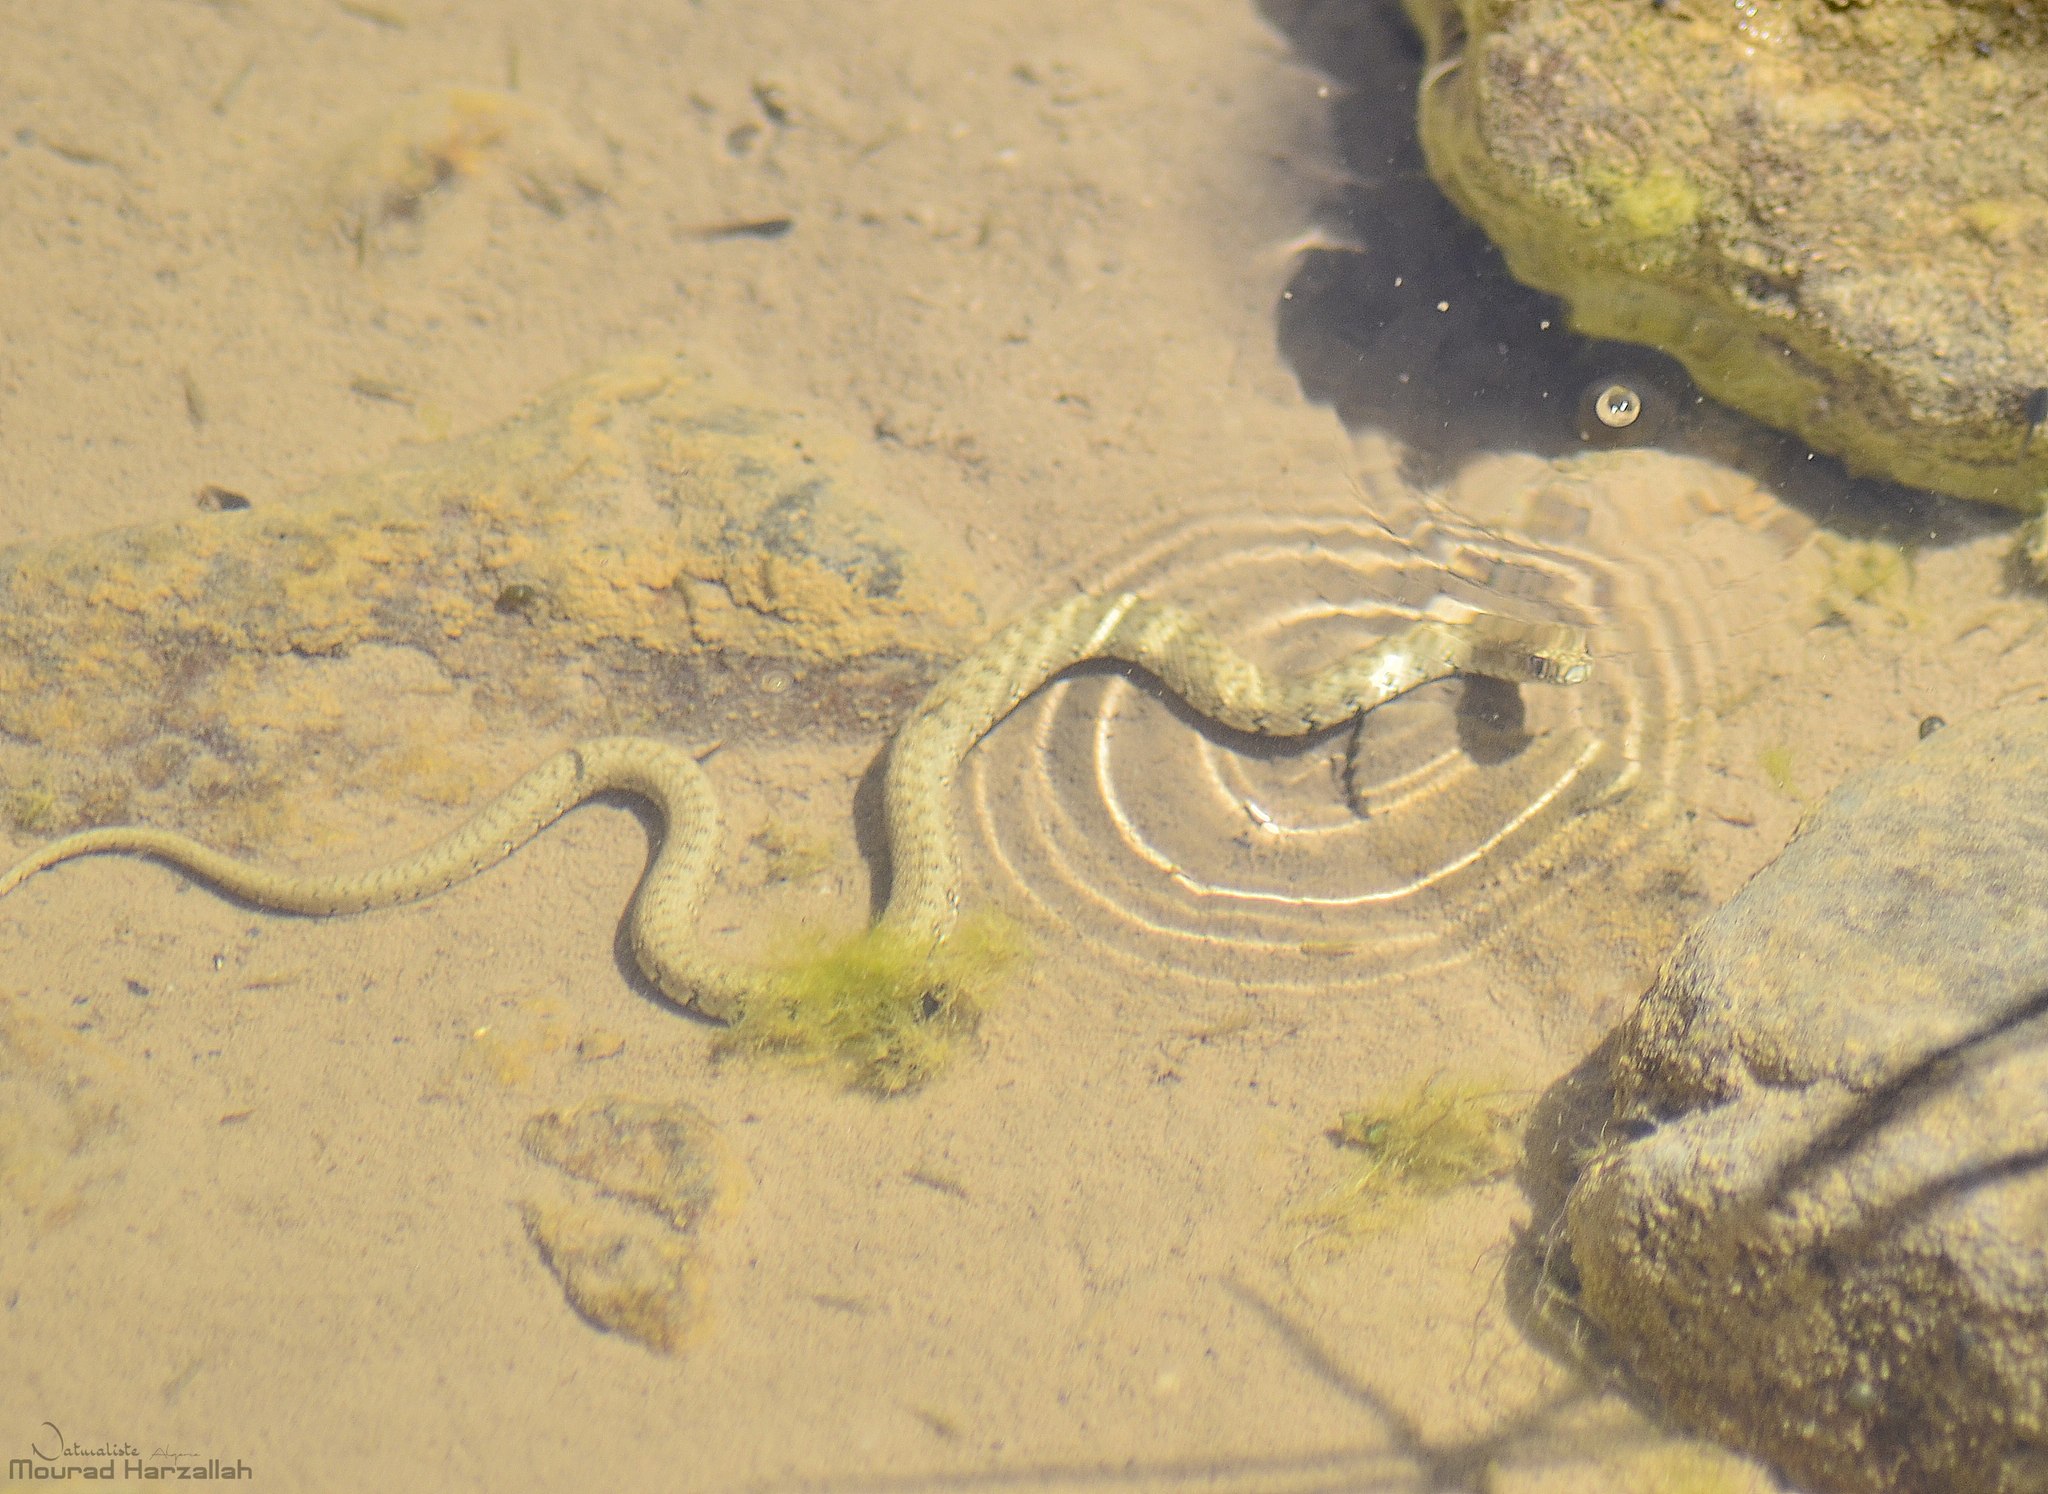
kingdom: Animalia
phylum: Chordata
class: Squamata
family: Colubridae
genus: Natrix
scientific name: Natrix maura
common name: Viperine water snake
